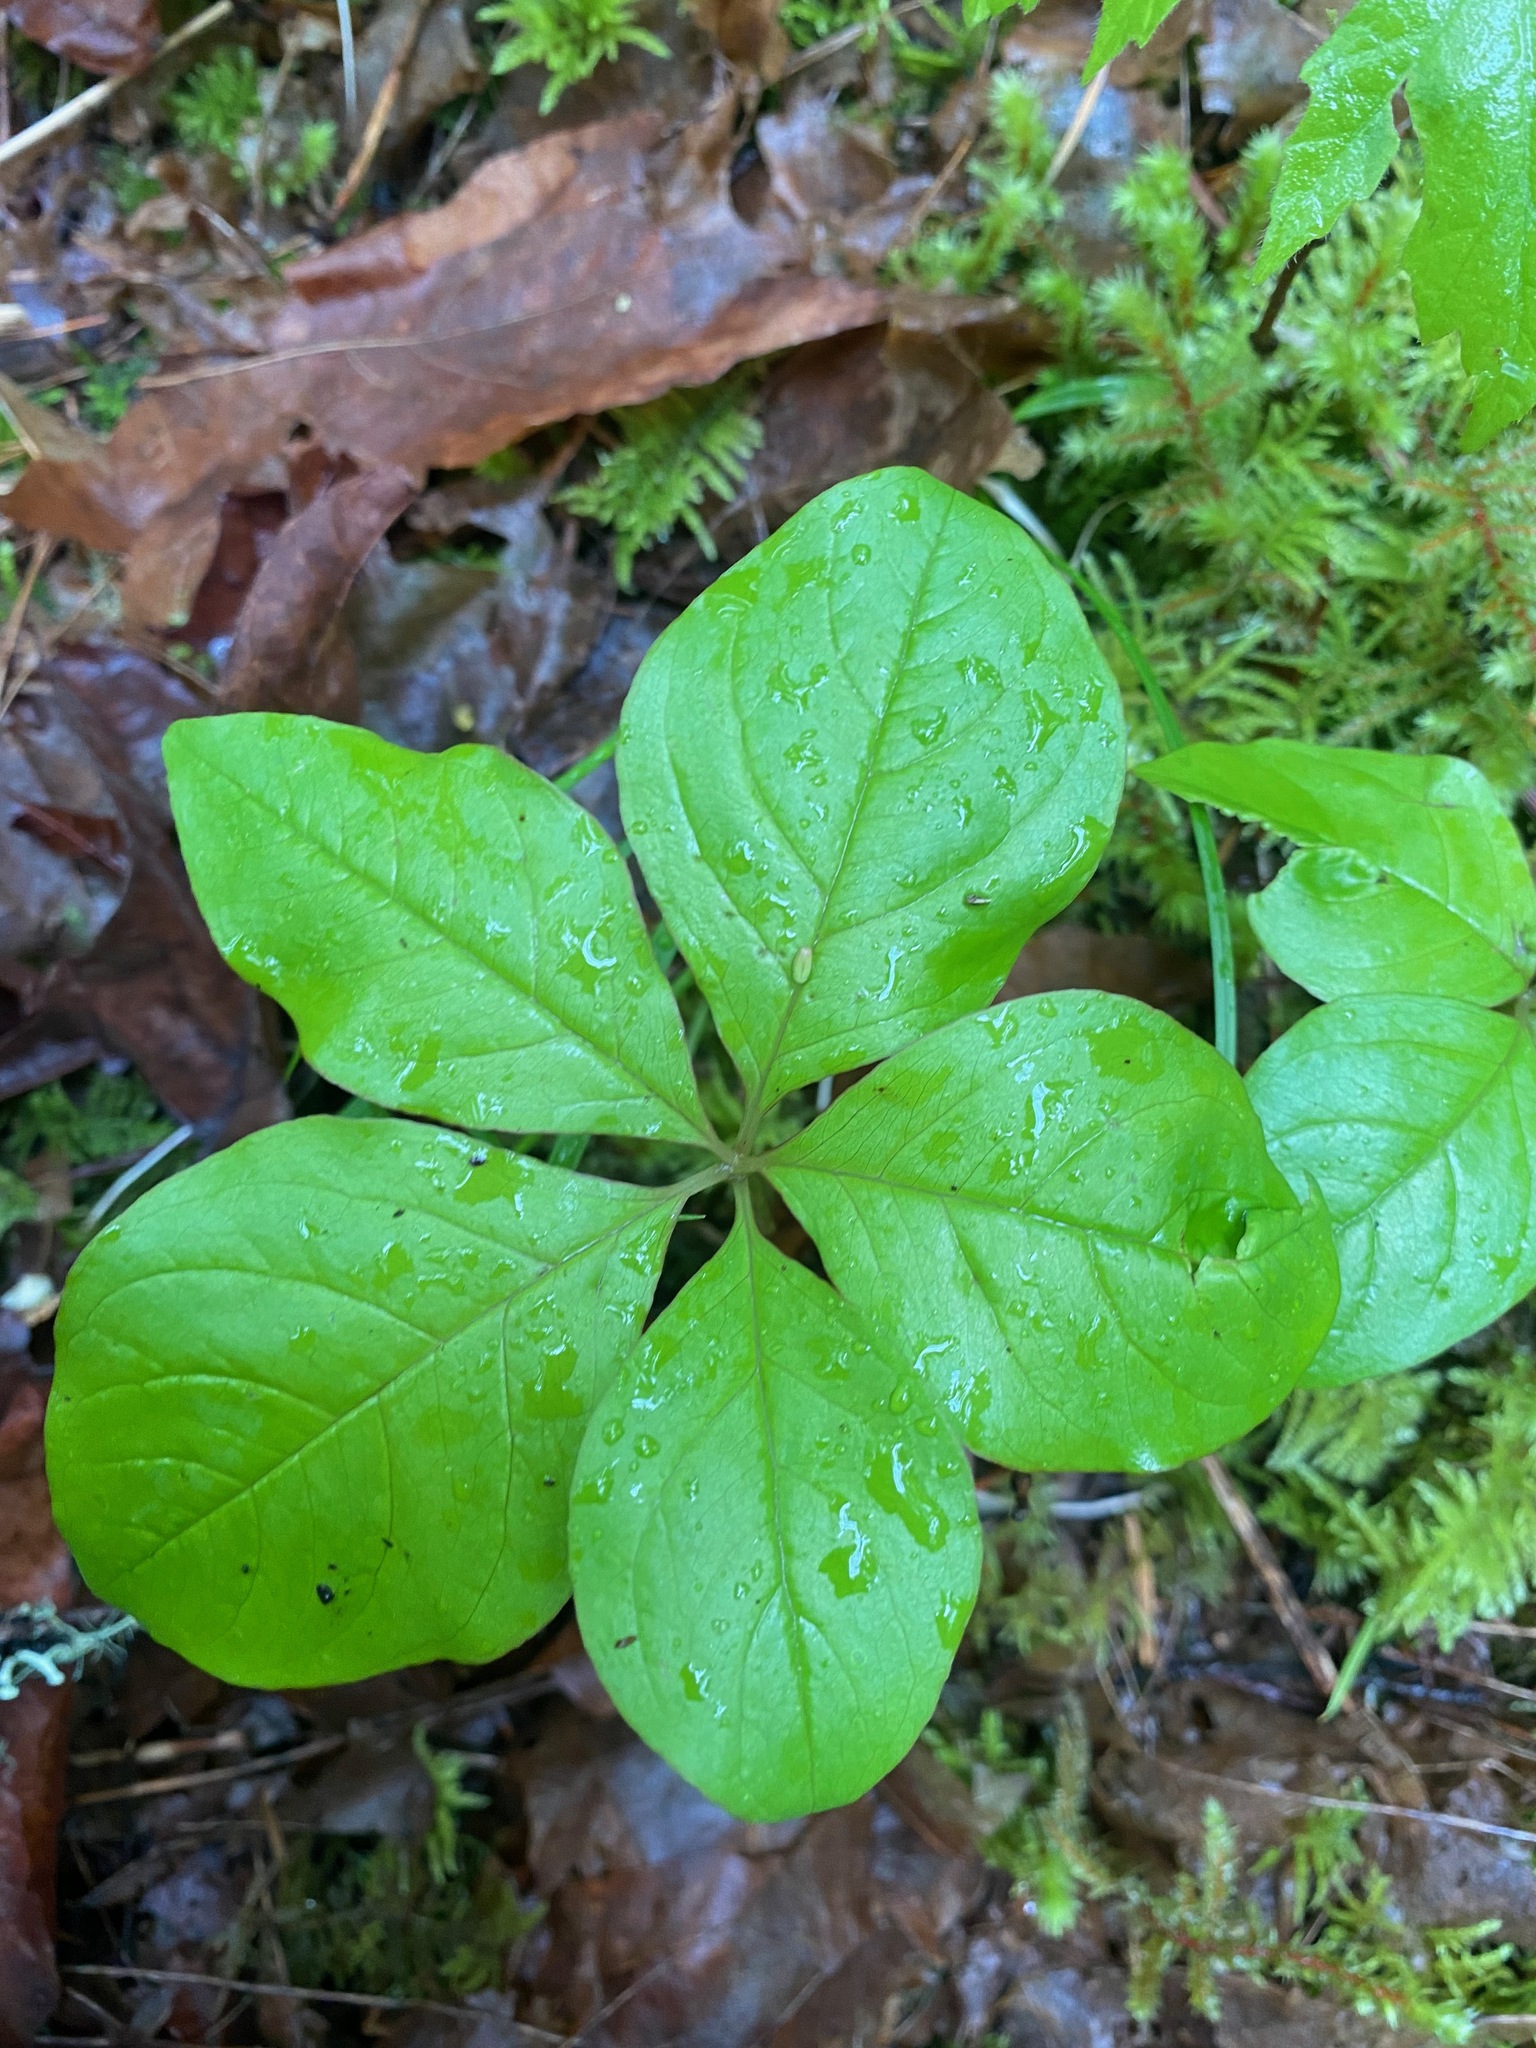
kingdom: Plantae
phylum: Tracheophyta
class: Magnoliopsida
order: Ericales
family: Primulaceae
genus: Lysimachia
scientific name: Lysimachia latifolia
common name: Pacific starflower
